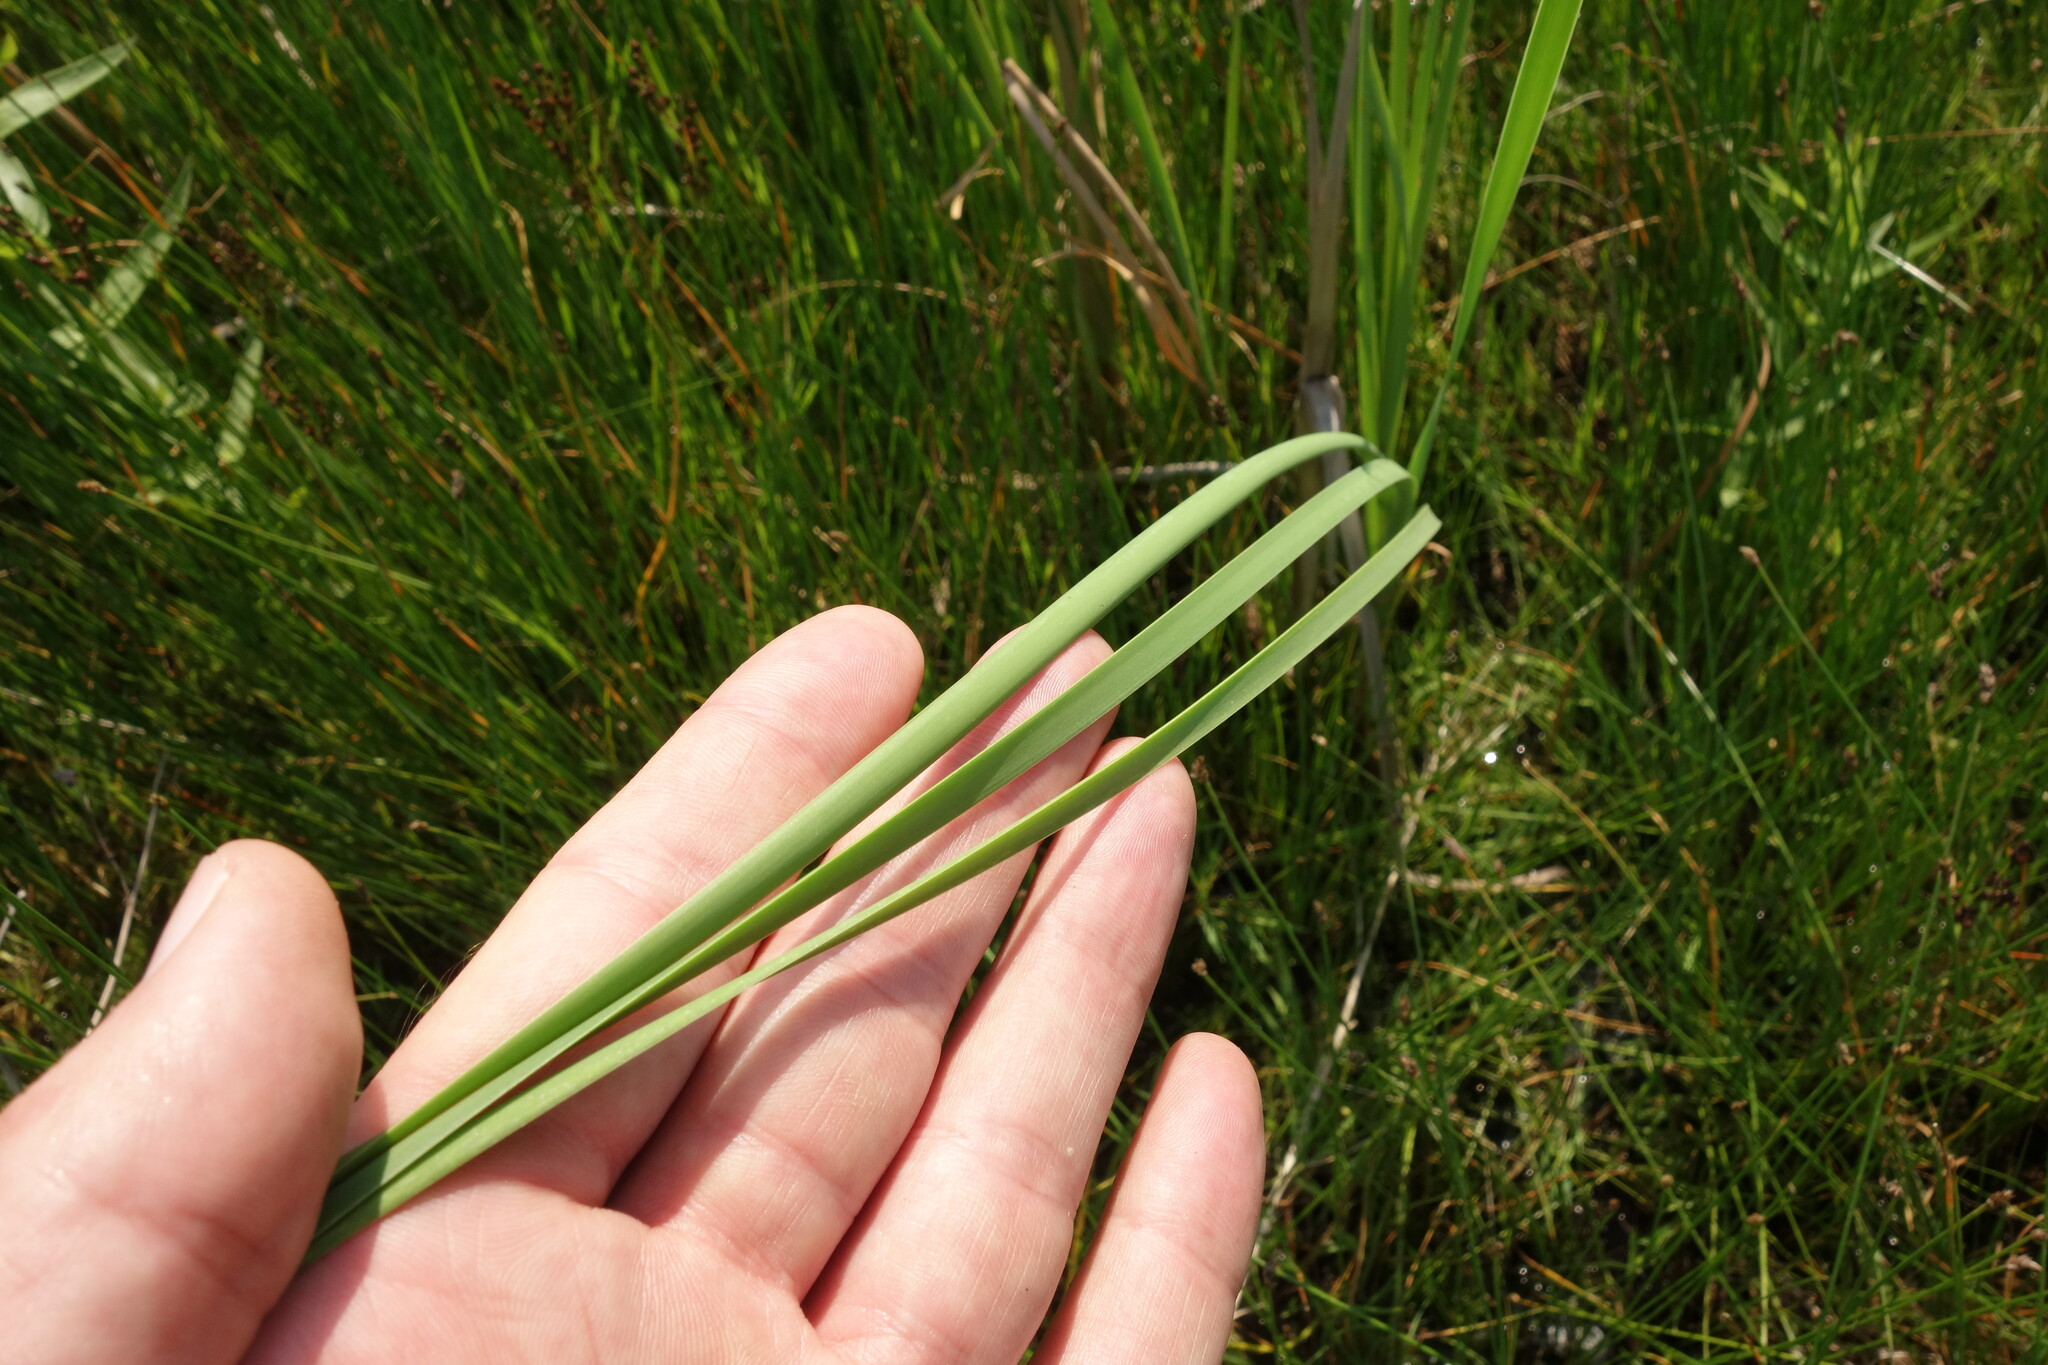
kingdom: Plantae
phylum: Tracheophyta
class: Liliopsida
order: Poales
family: Typhaceae
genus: Typha
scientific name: Typha angustifolia
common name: Lesser bulrush
